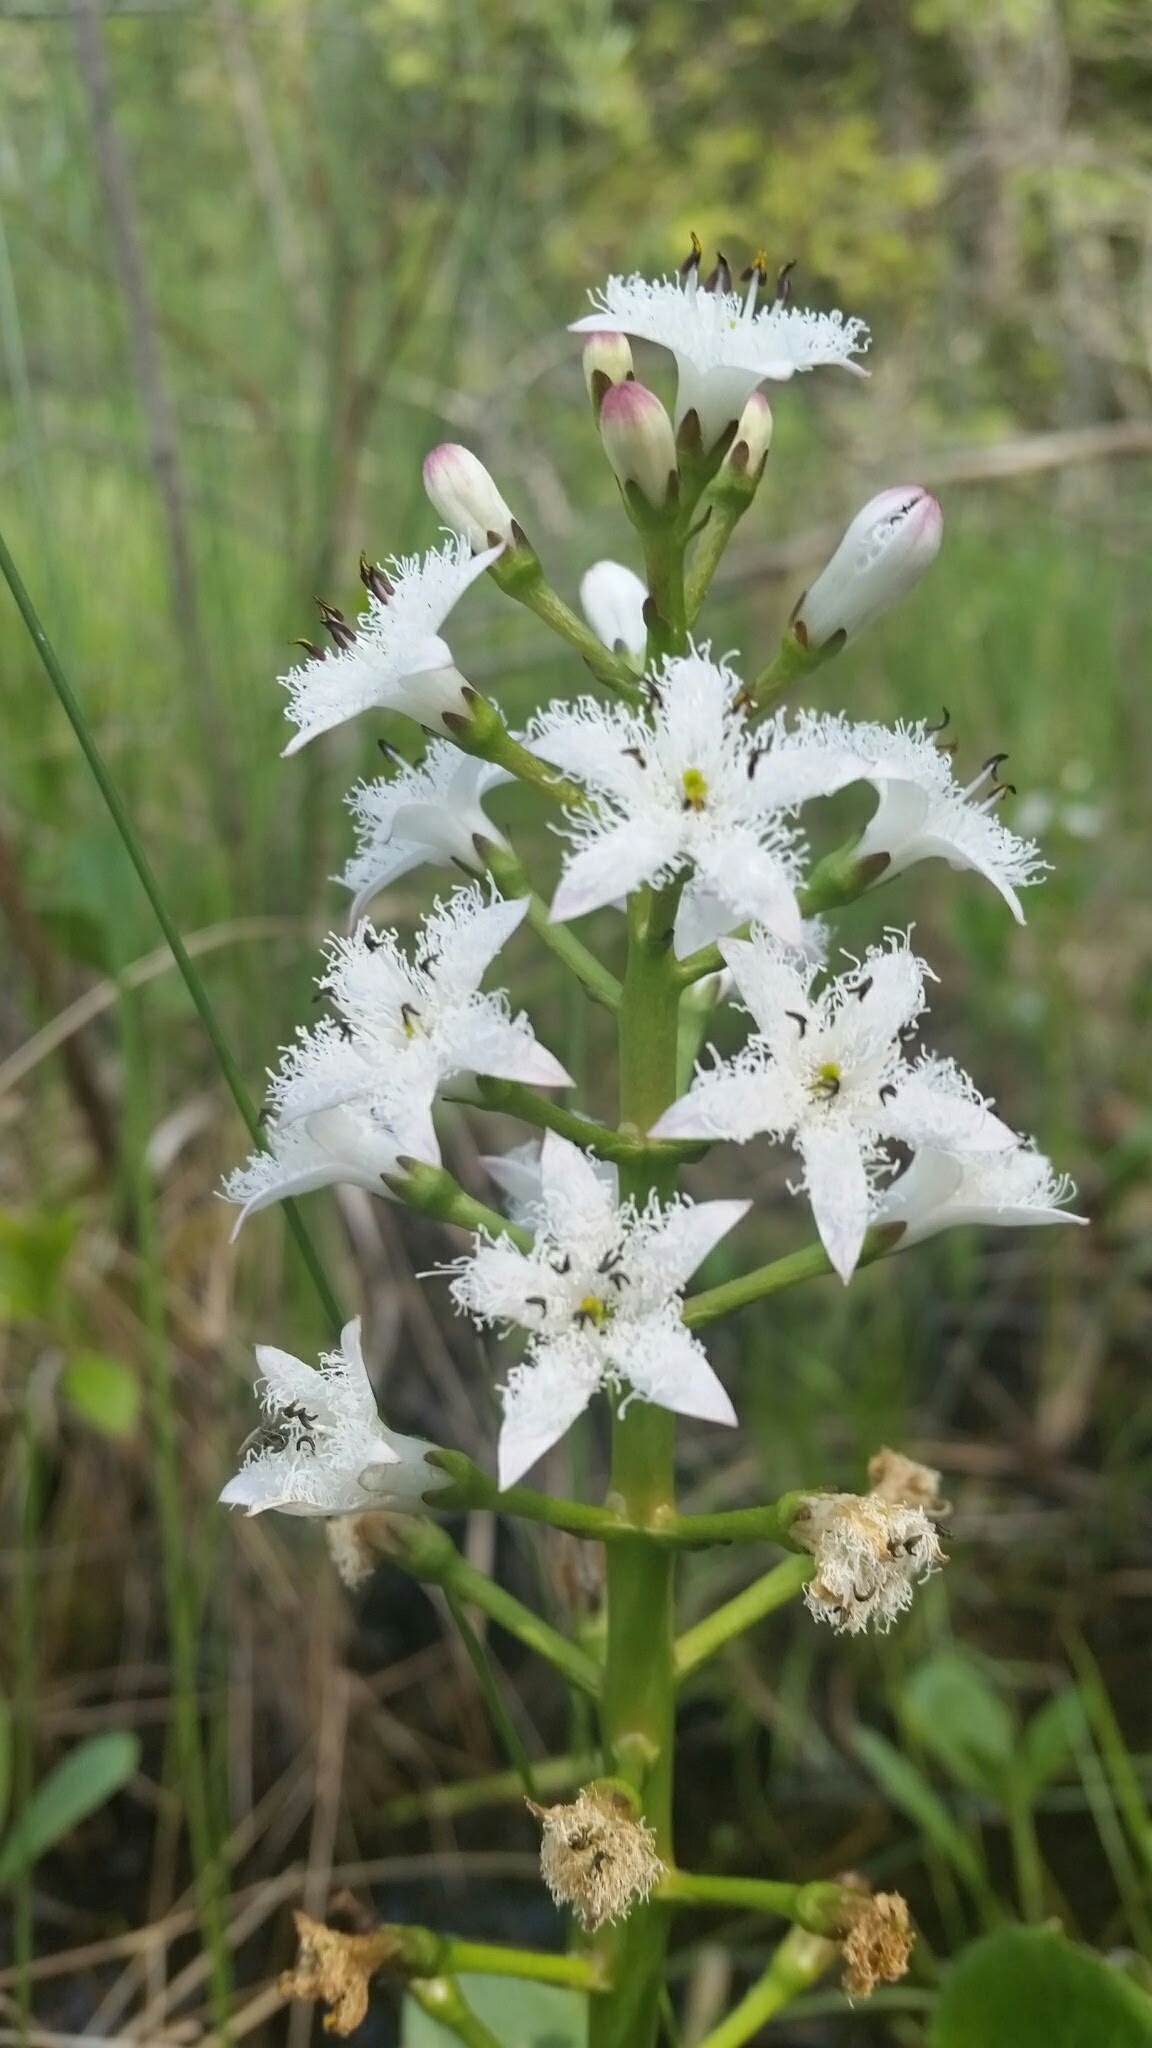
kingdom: Plantae
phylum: Tracheophyta
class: Magnoliopsida
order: Asterales
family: Menyanthaceae
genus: Menyanthes
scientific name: Menyanthes trifoliata
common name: Bogbean
